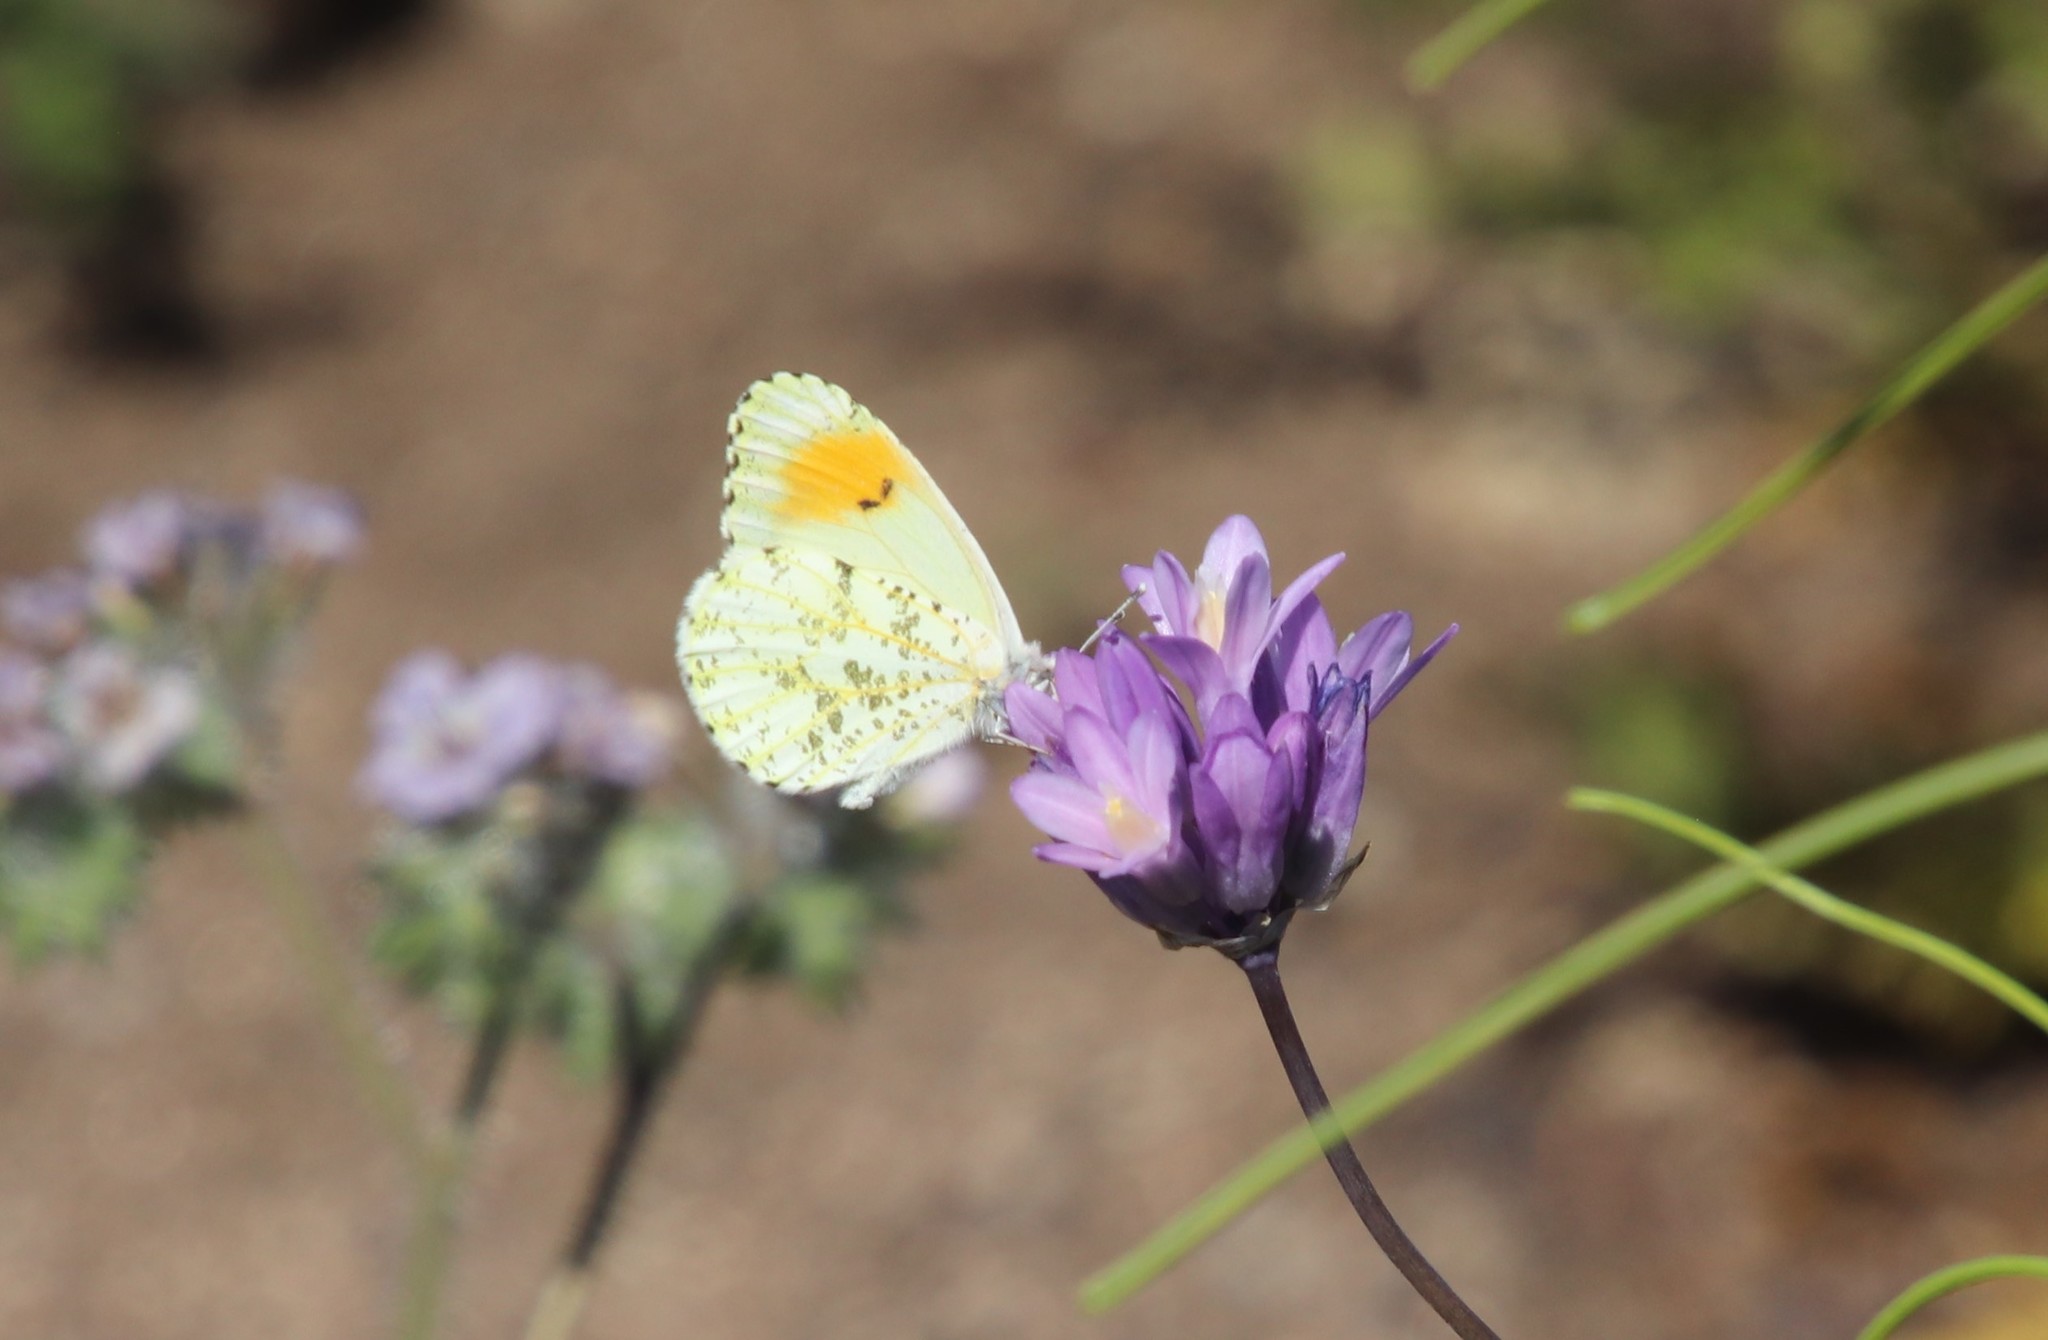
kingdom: Animalia
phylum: Arthropoda
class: Insecta
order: Lepidoptera
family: Pieridae
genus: Anthocharis
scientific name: Anthocharis sara
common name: Sara's orangetip
